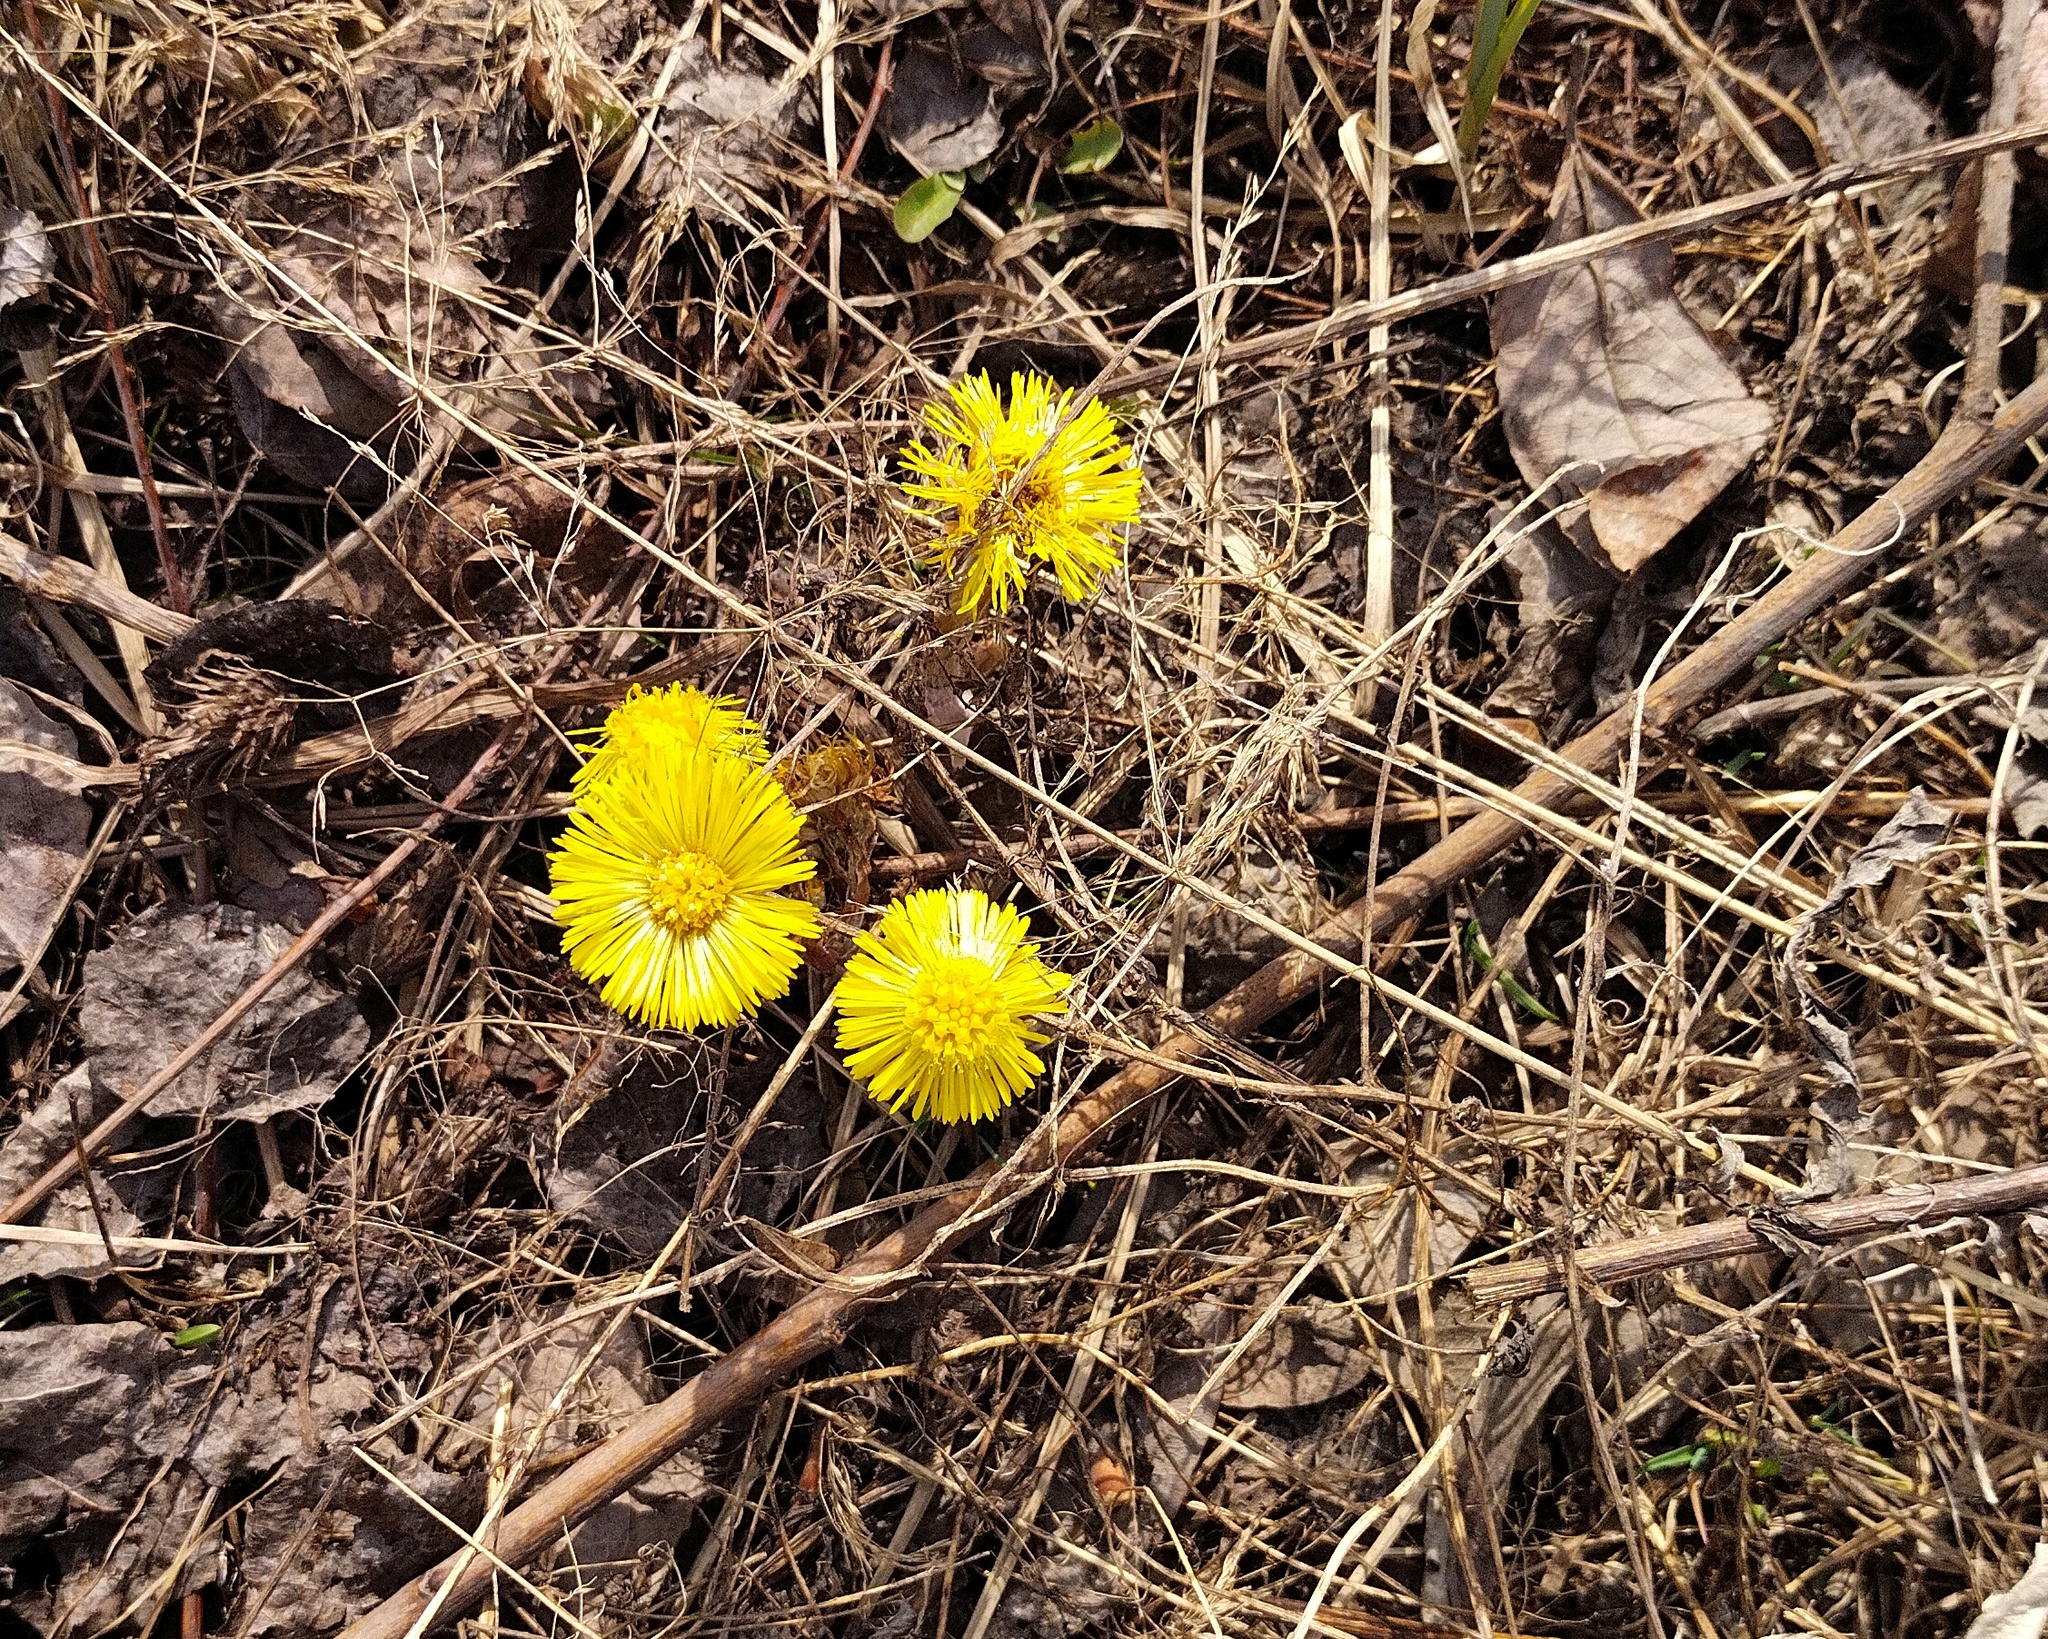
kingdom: Plantae
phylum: Tracheophyta
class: Magnoliopsida
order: Asterales
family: Asteraceae
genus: Tussilago
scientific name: Tussilago farfara
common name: Coltsfoot
